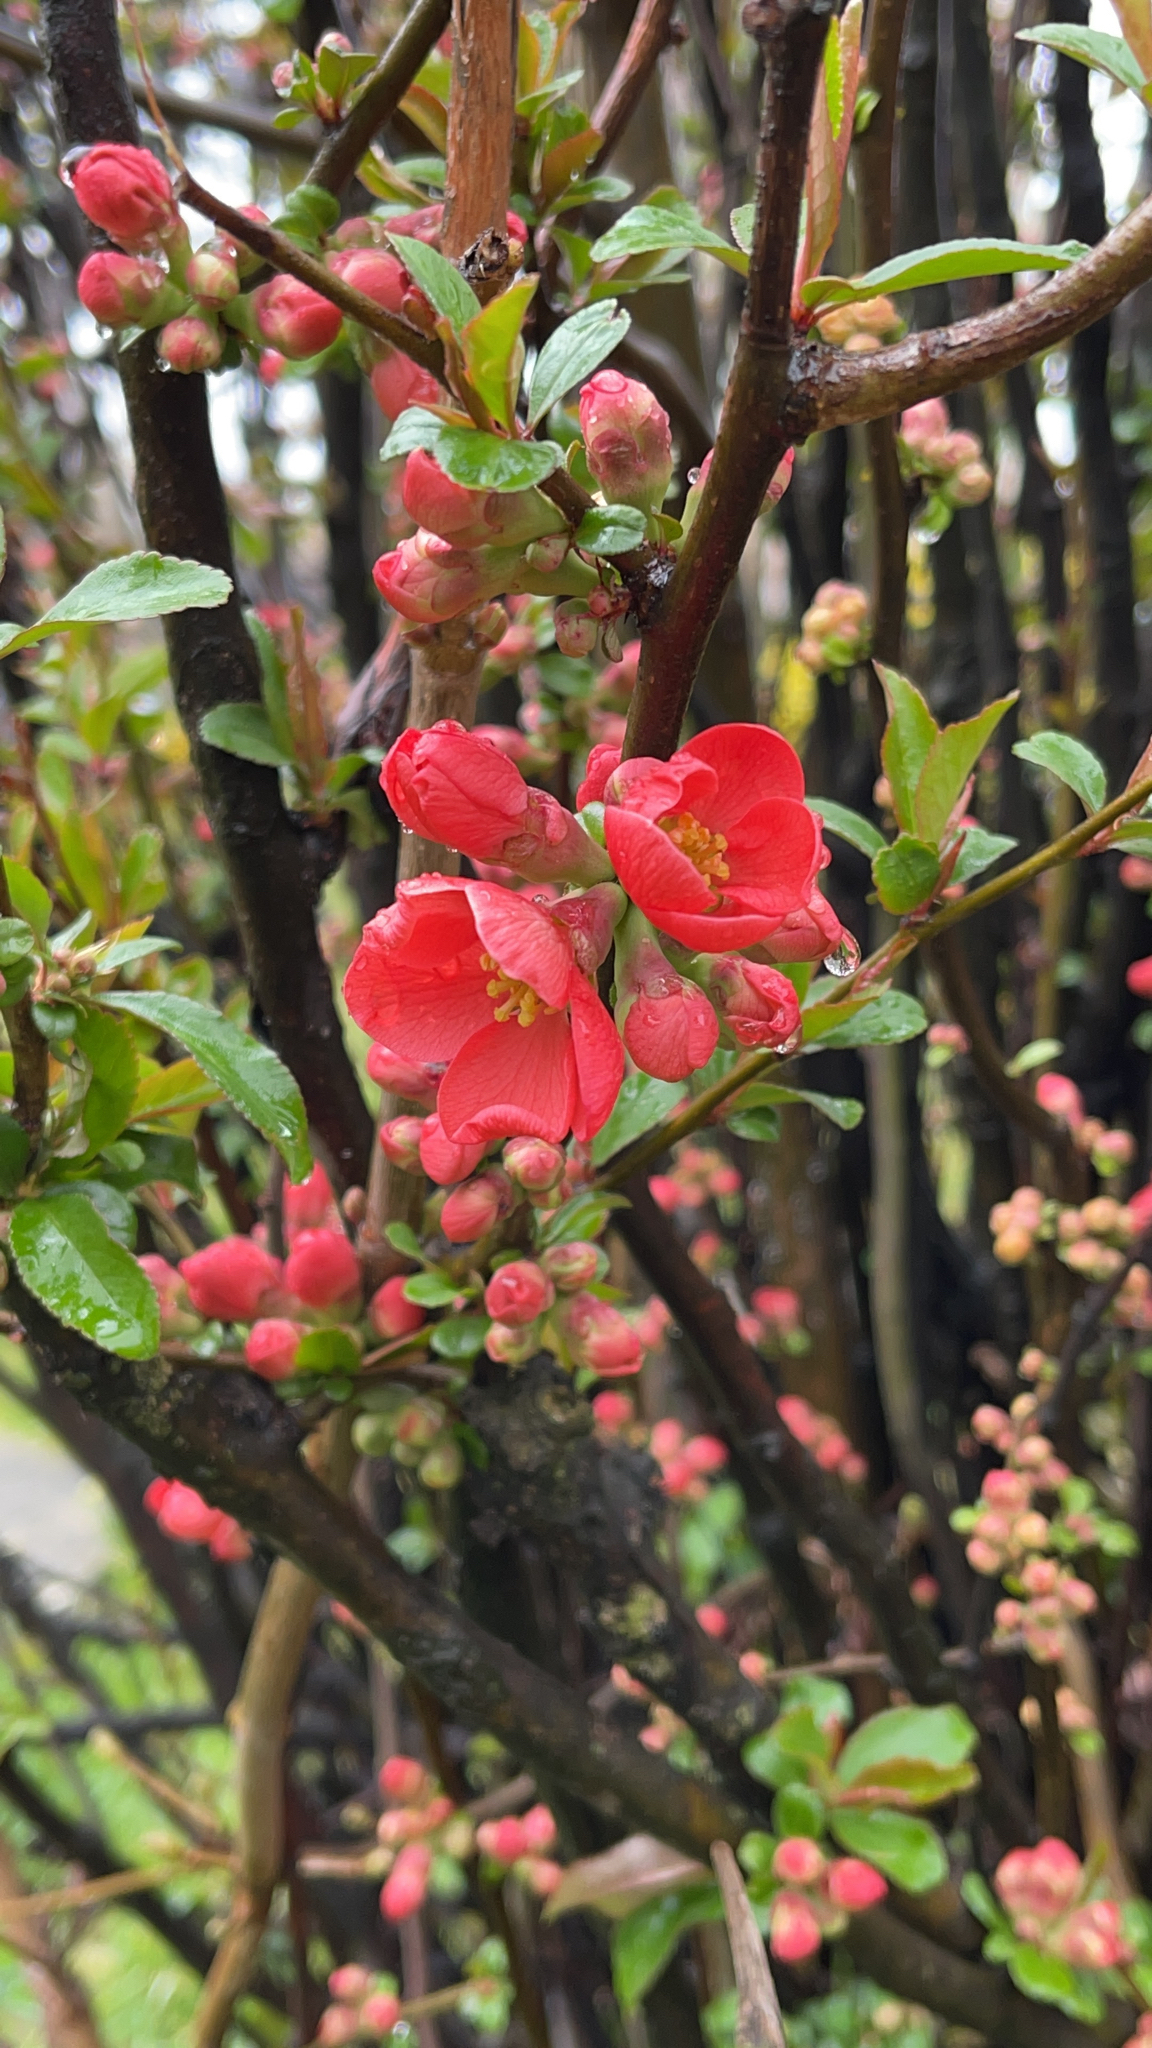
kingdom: Plantae
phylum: Tracheophyta
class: Magnoliopsida
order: Rosales
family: Rosaceae
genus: Chaenomeles
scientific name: Chaenomeles speciosa
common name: Japanese quince
